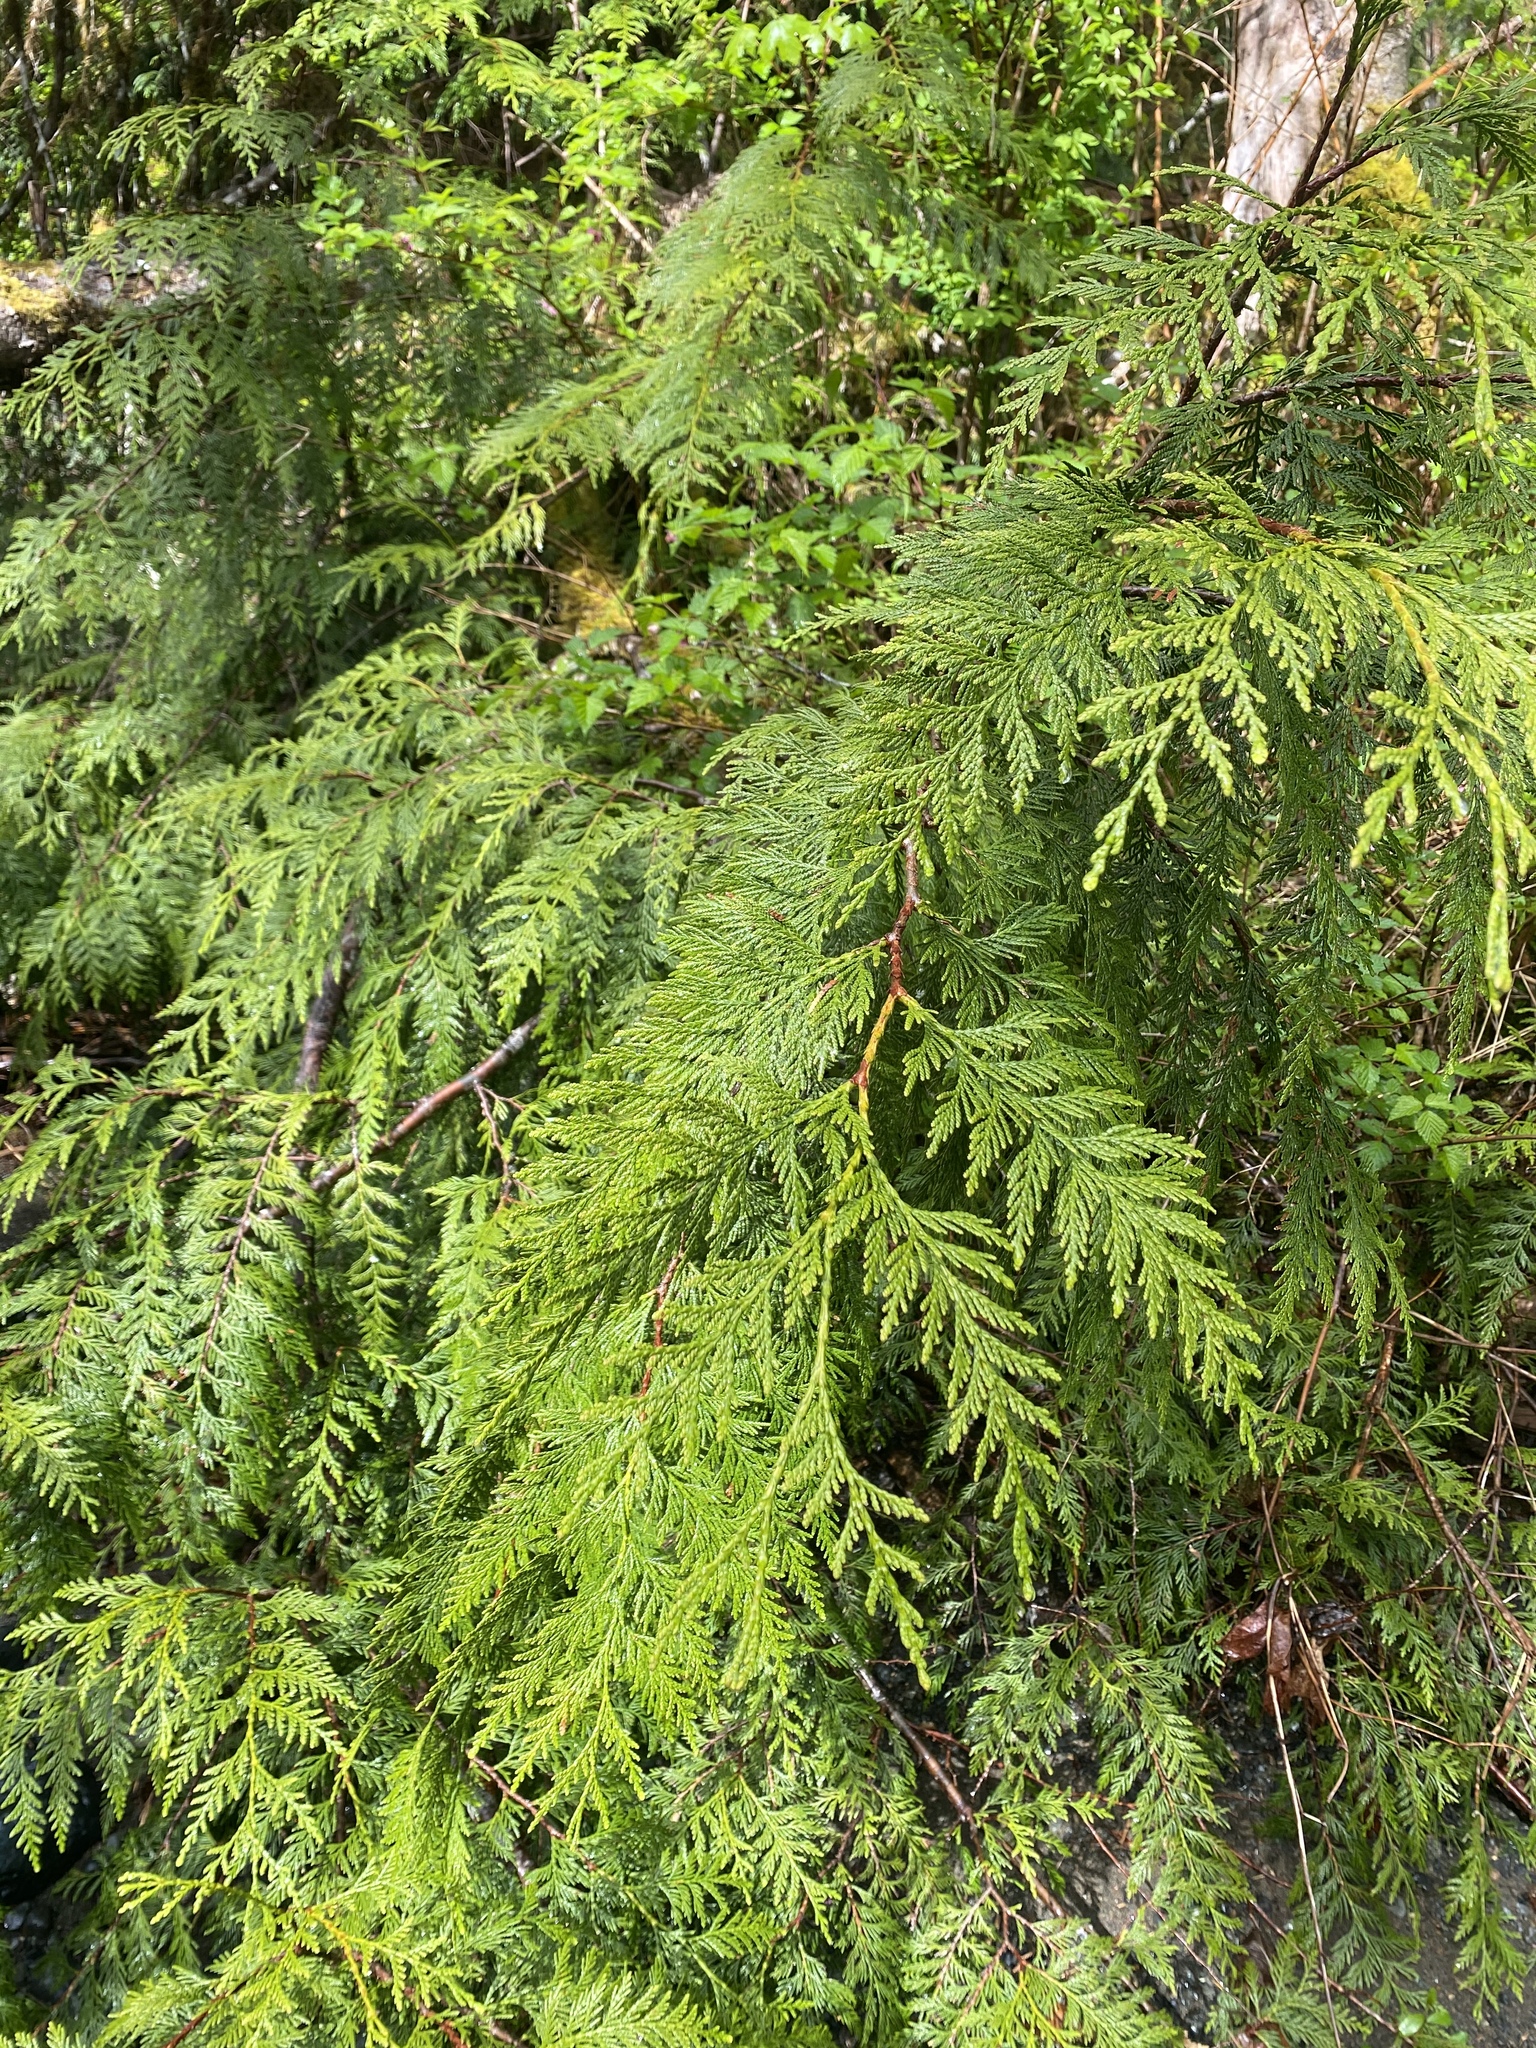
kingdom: Plantae
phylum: Tracheophyta
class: Pinopsida
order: Pinales
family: Cupressaceae
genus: Thuja
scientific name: Thuja plicata
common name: Western red-cedar
